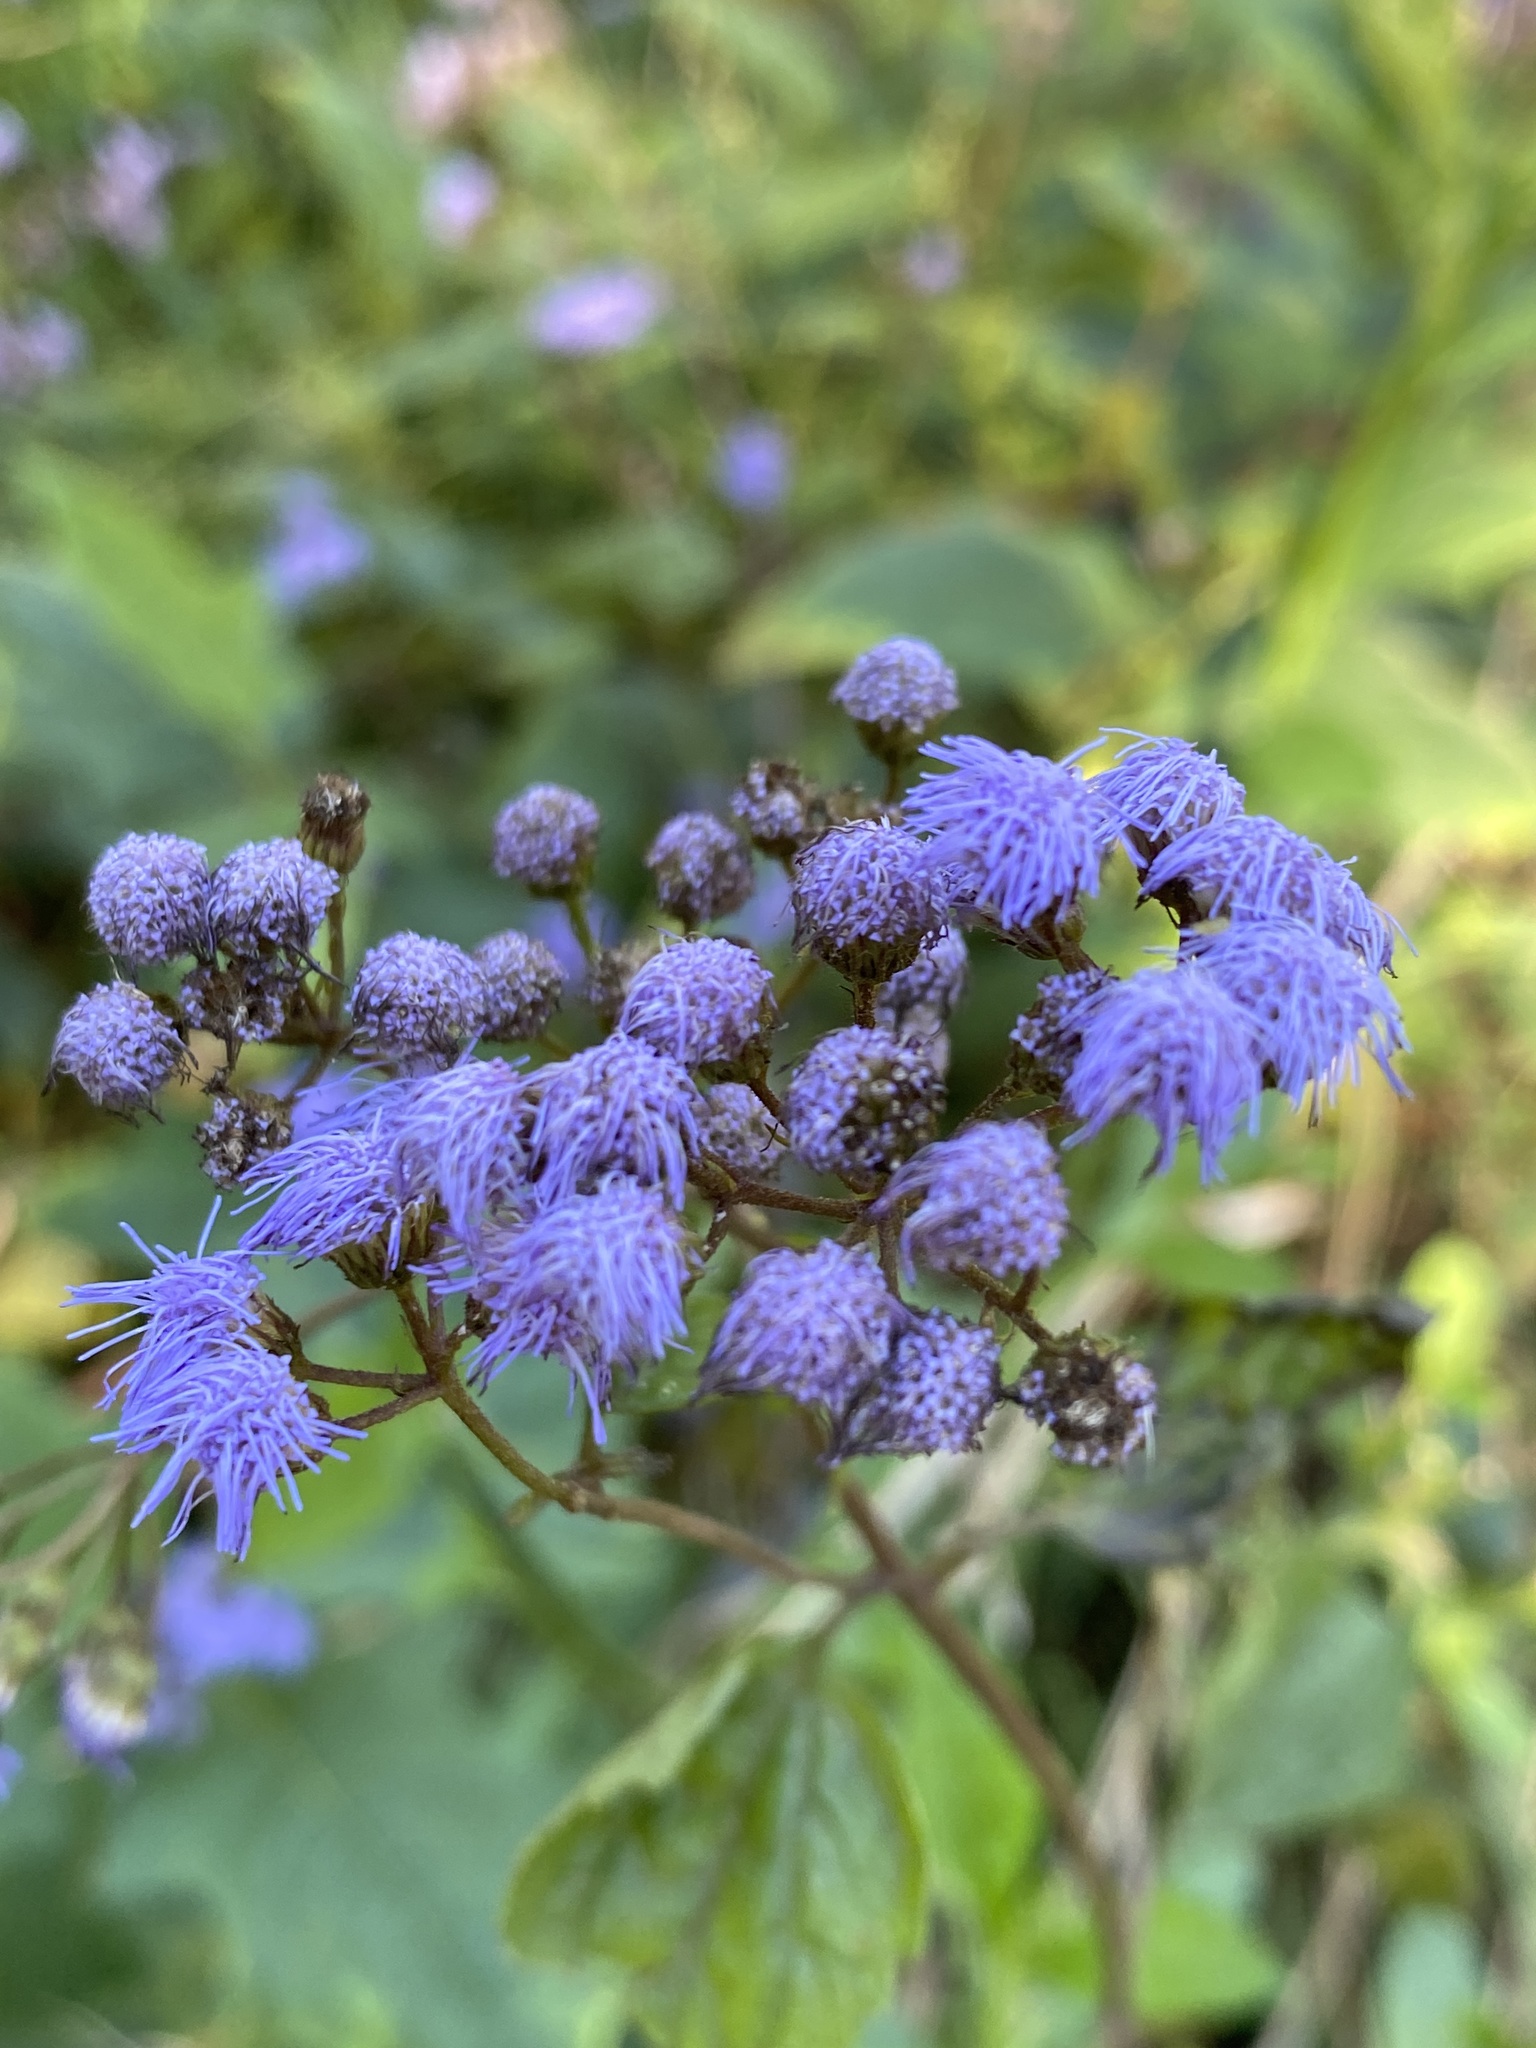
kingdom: Plantae
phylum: Tracheophyta
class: Magnoliopsida
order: Asterales
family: Asteraceae
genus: Conoclinium
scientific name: Conoclinium coelestinum
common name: Blue mistflower
